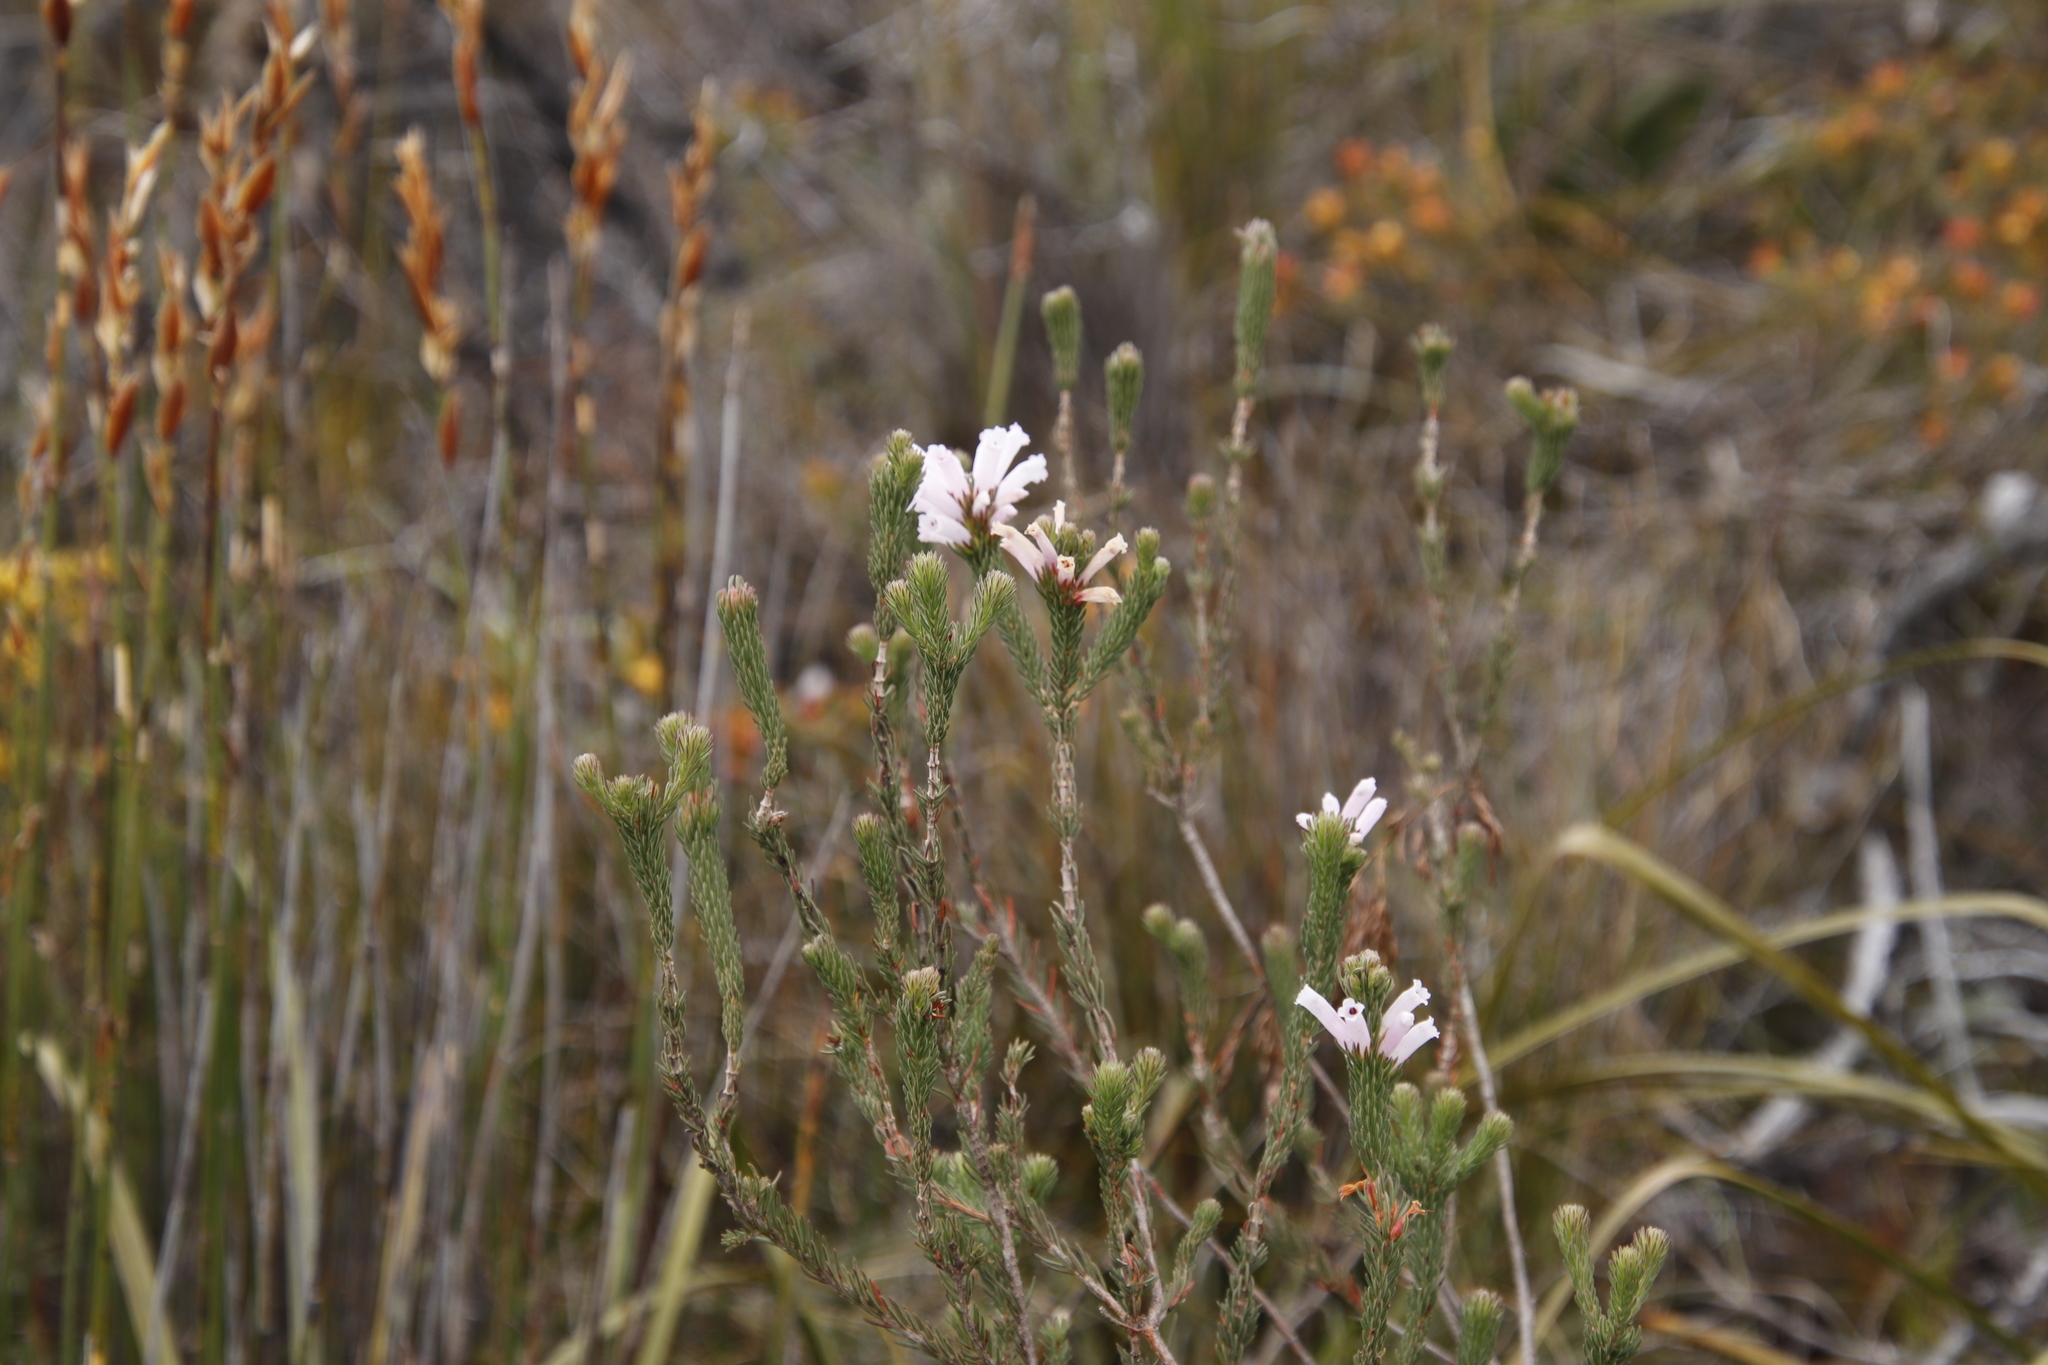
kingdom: Plantae
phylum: Tracheophyta
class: Magnoliopsida
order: Ericales
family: Ericaceae
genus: Erica
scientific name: Erica viscaria
